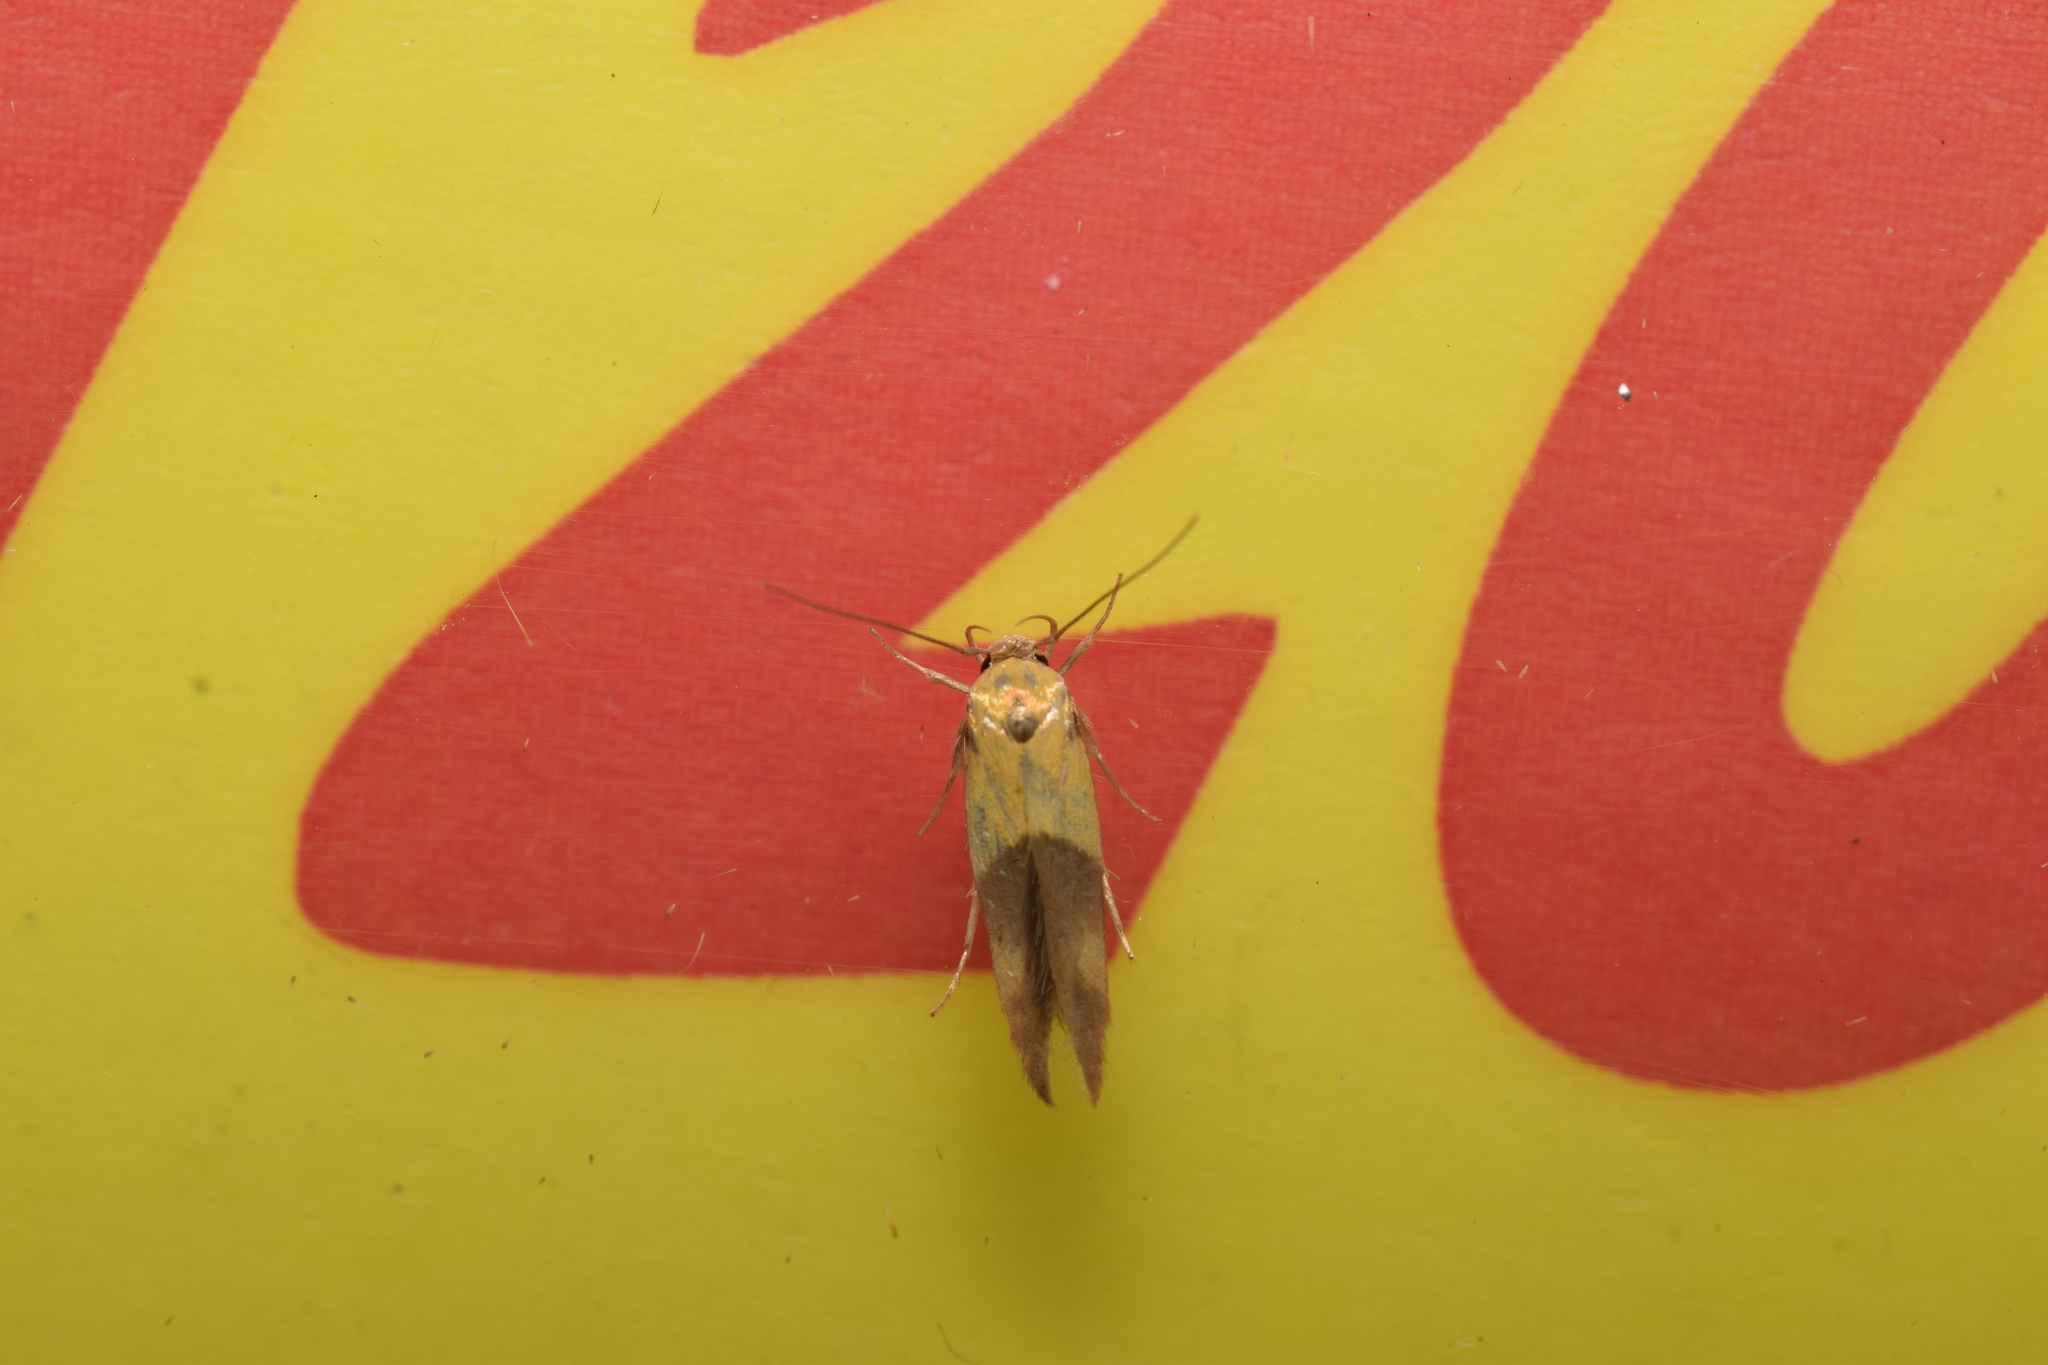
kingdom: Animalia
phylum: Arthropoda
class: Insecta
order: Lepidoptera
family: Stathmopodidae
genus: Stathmopoda
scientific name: Stathmopoda auriferella
